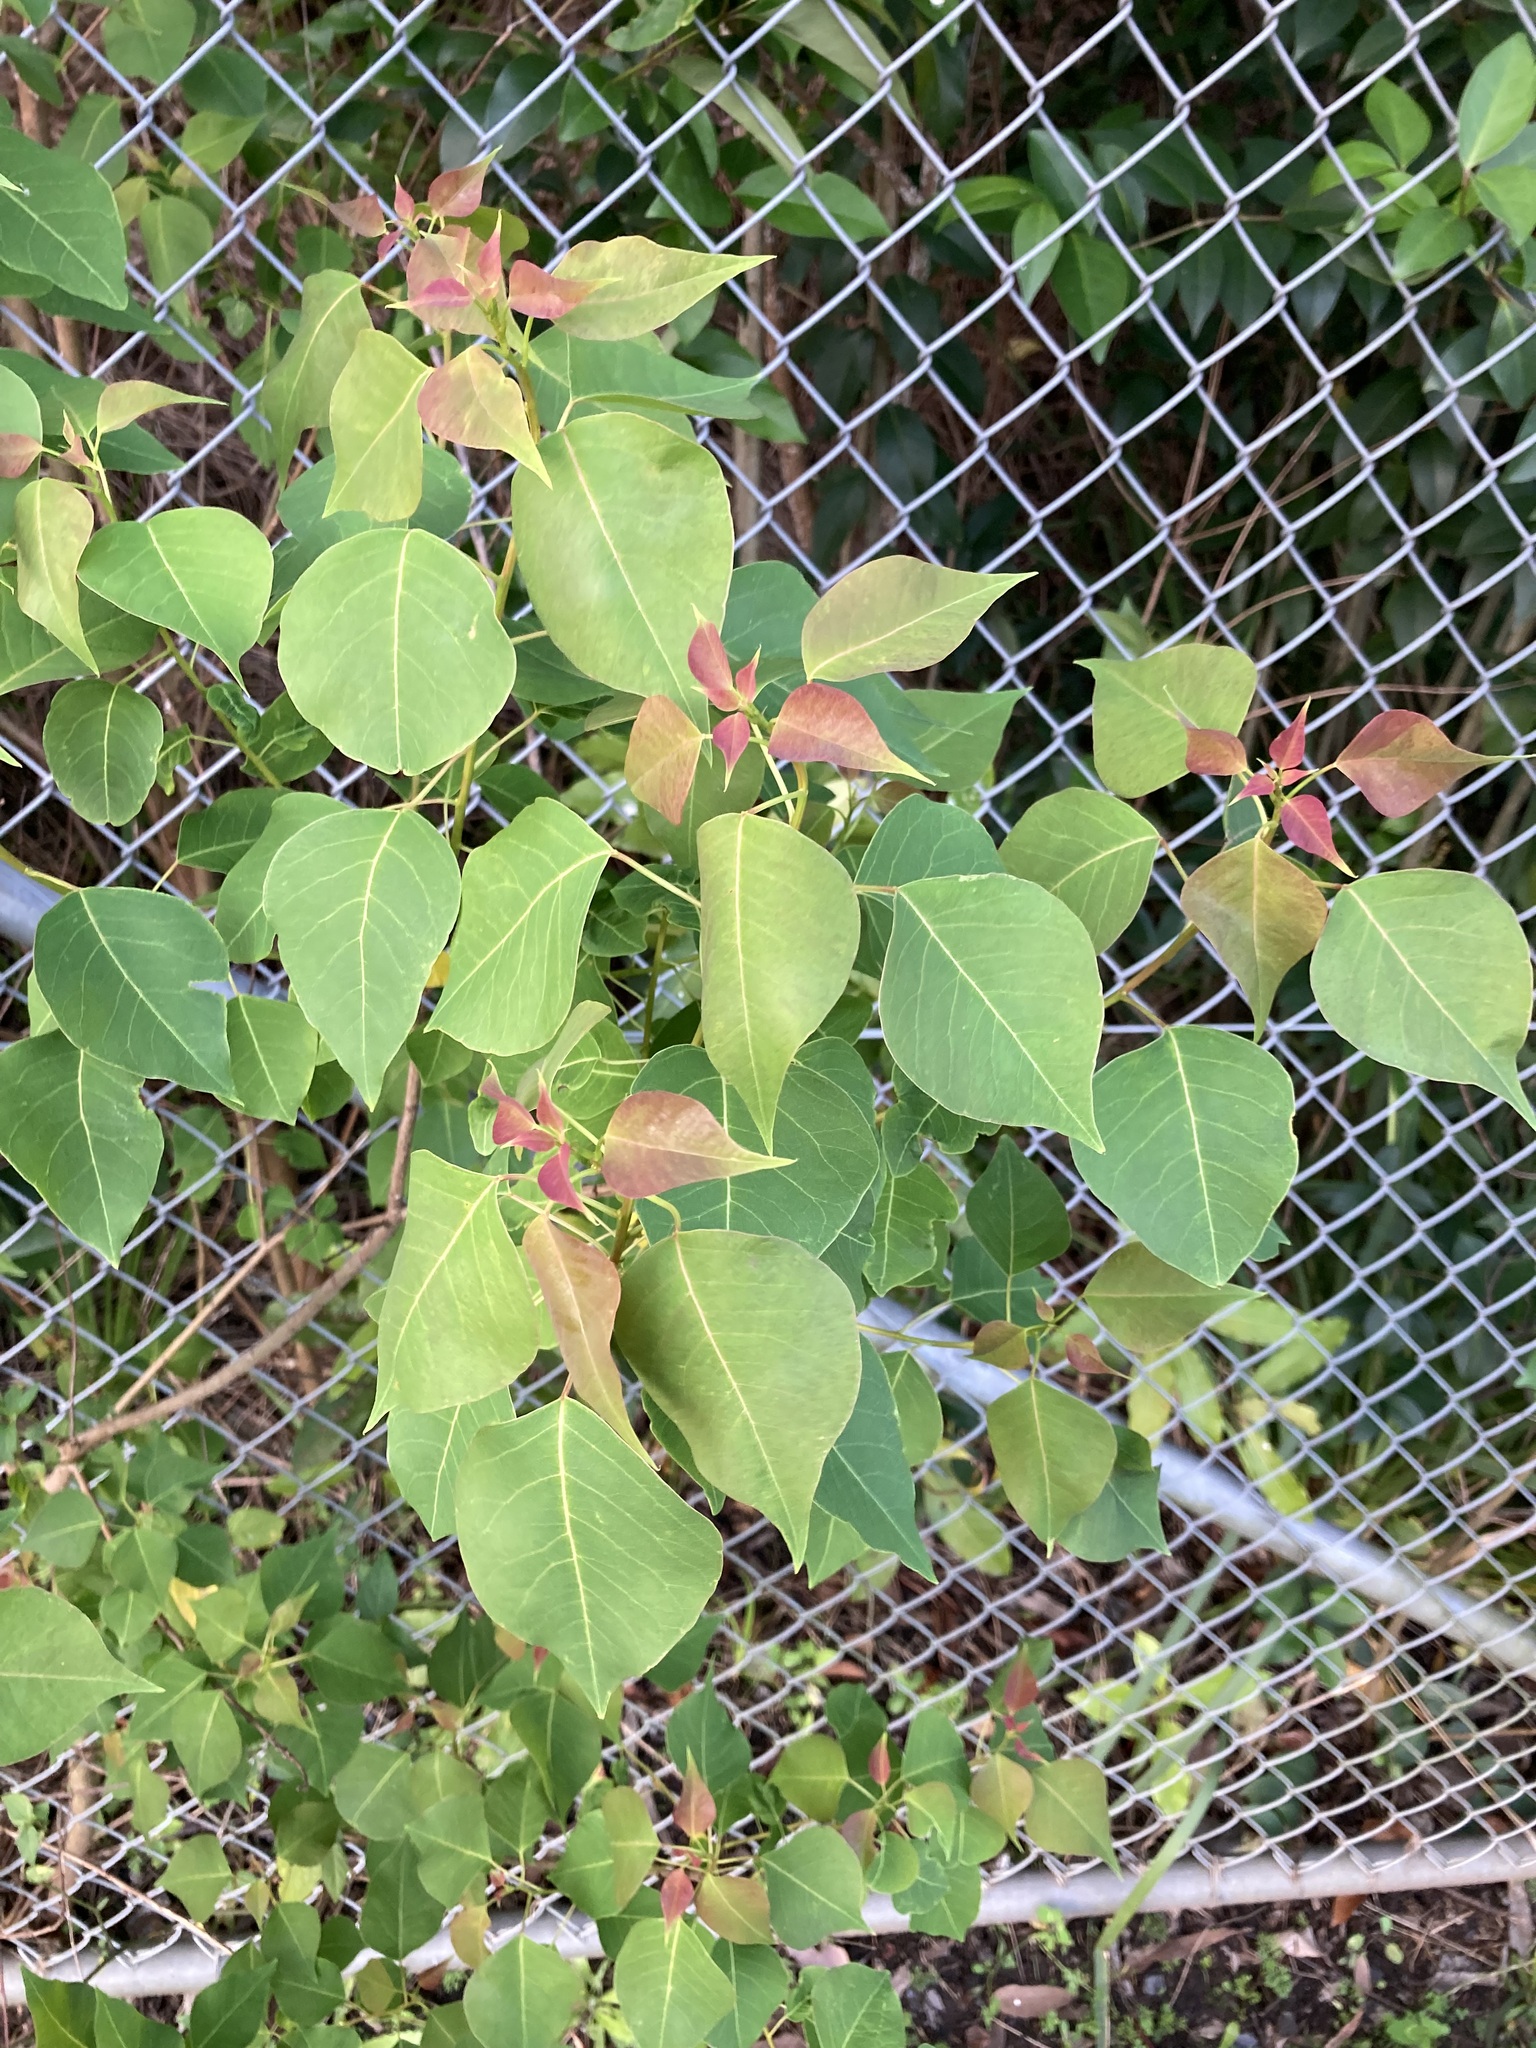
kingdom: Plantae
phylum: Tracheophyta
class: Magnoliopsida
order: Malpighiales
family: Euphorbiaceae
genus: Triadica
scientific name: Triadica sebifera
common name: Chinese tallow
